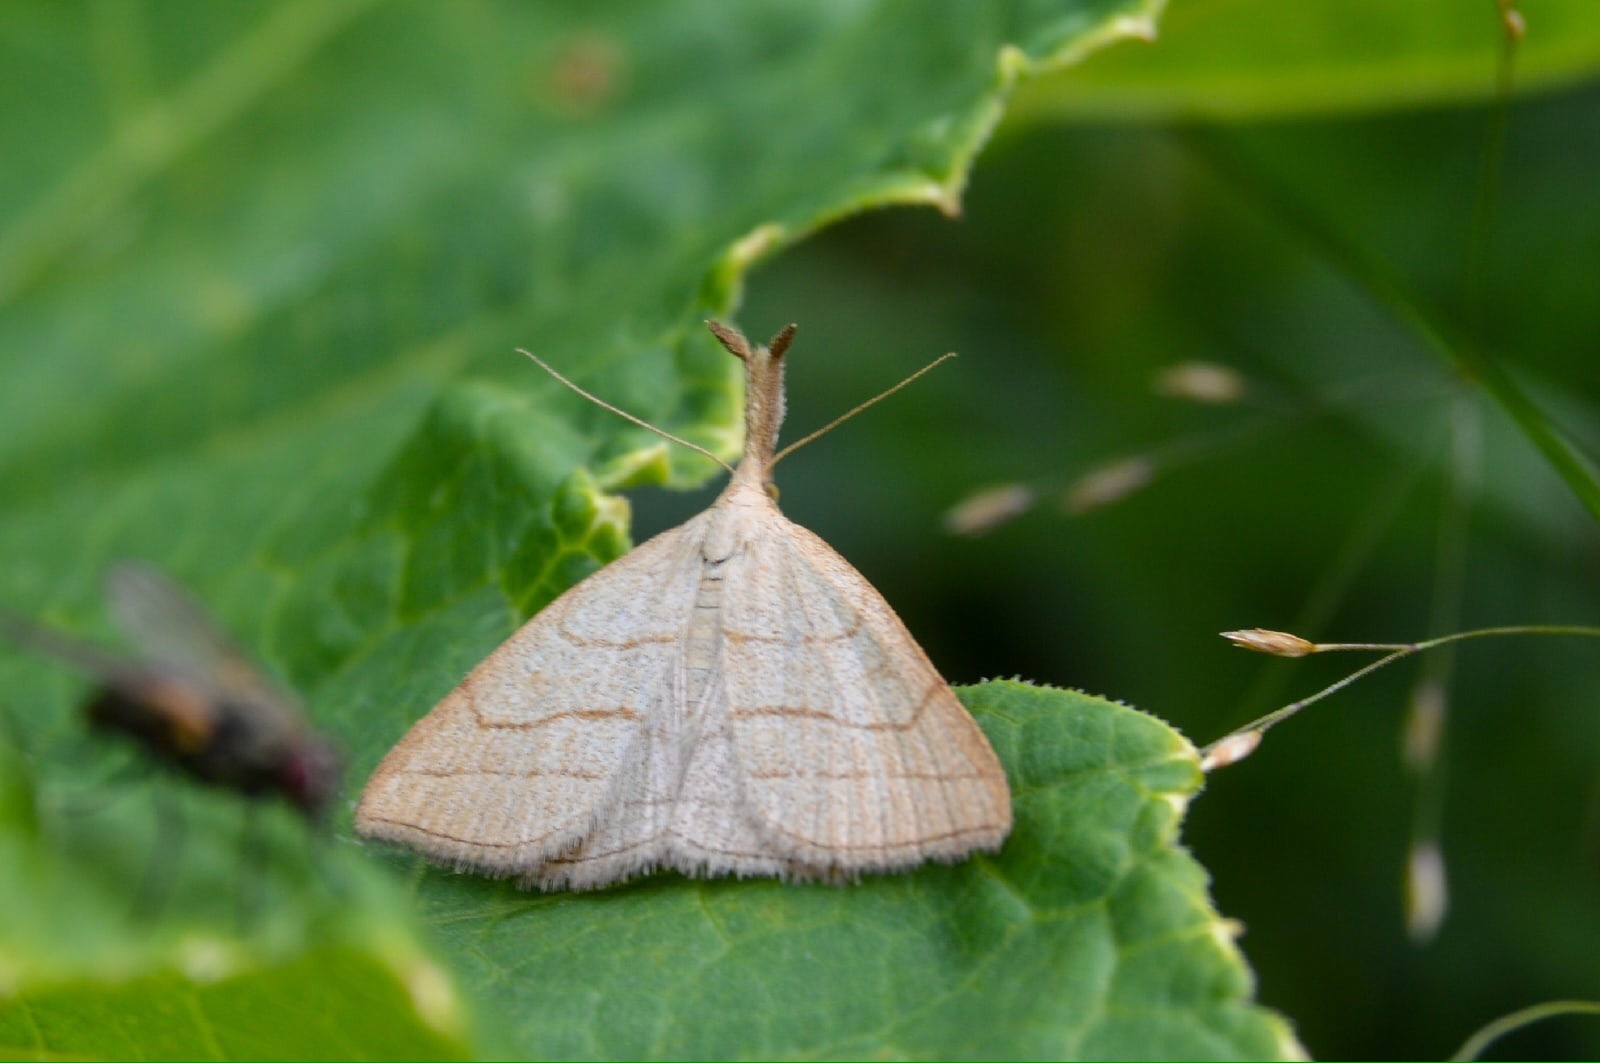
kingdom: Animalia
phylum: Arthropoda
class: Insecta
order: Lepidoptera
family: Erebidae
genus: Polypogon
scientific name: Polypogon tentacularia
